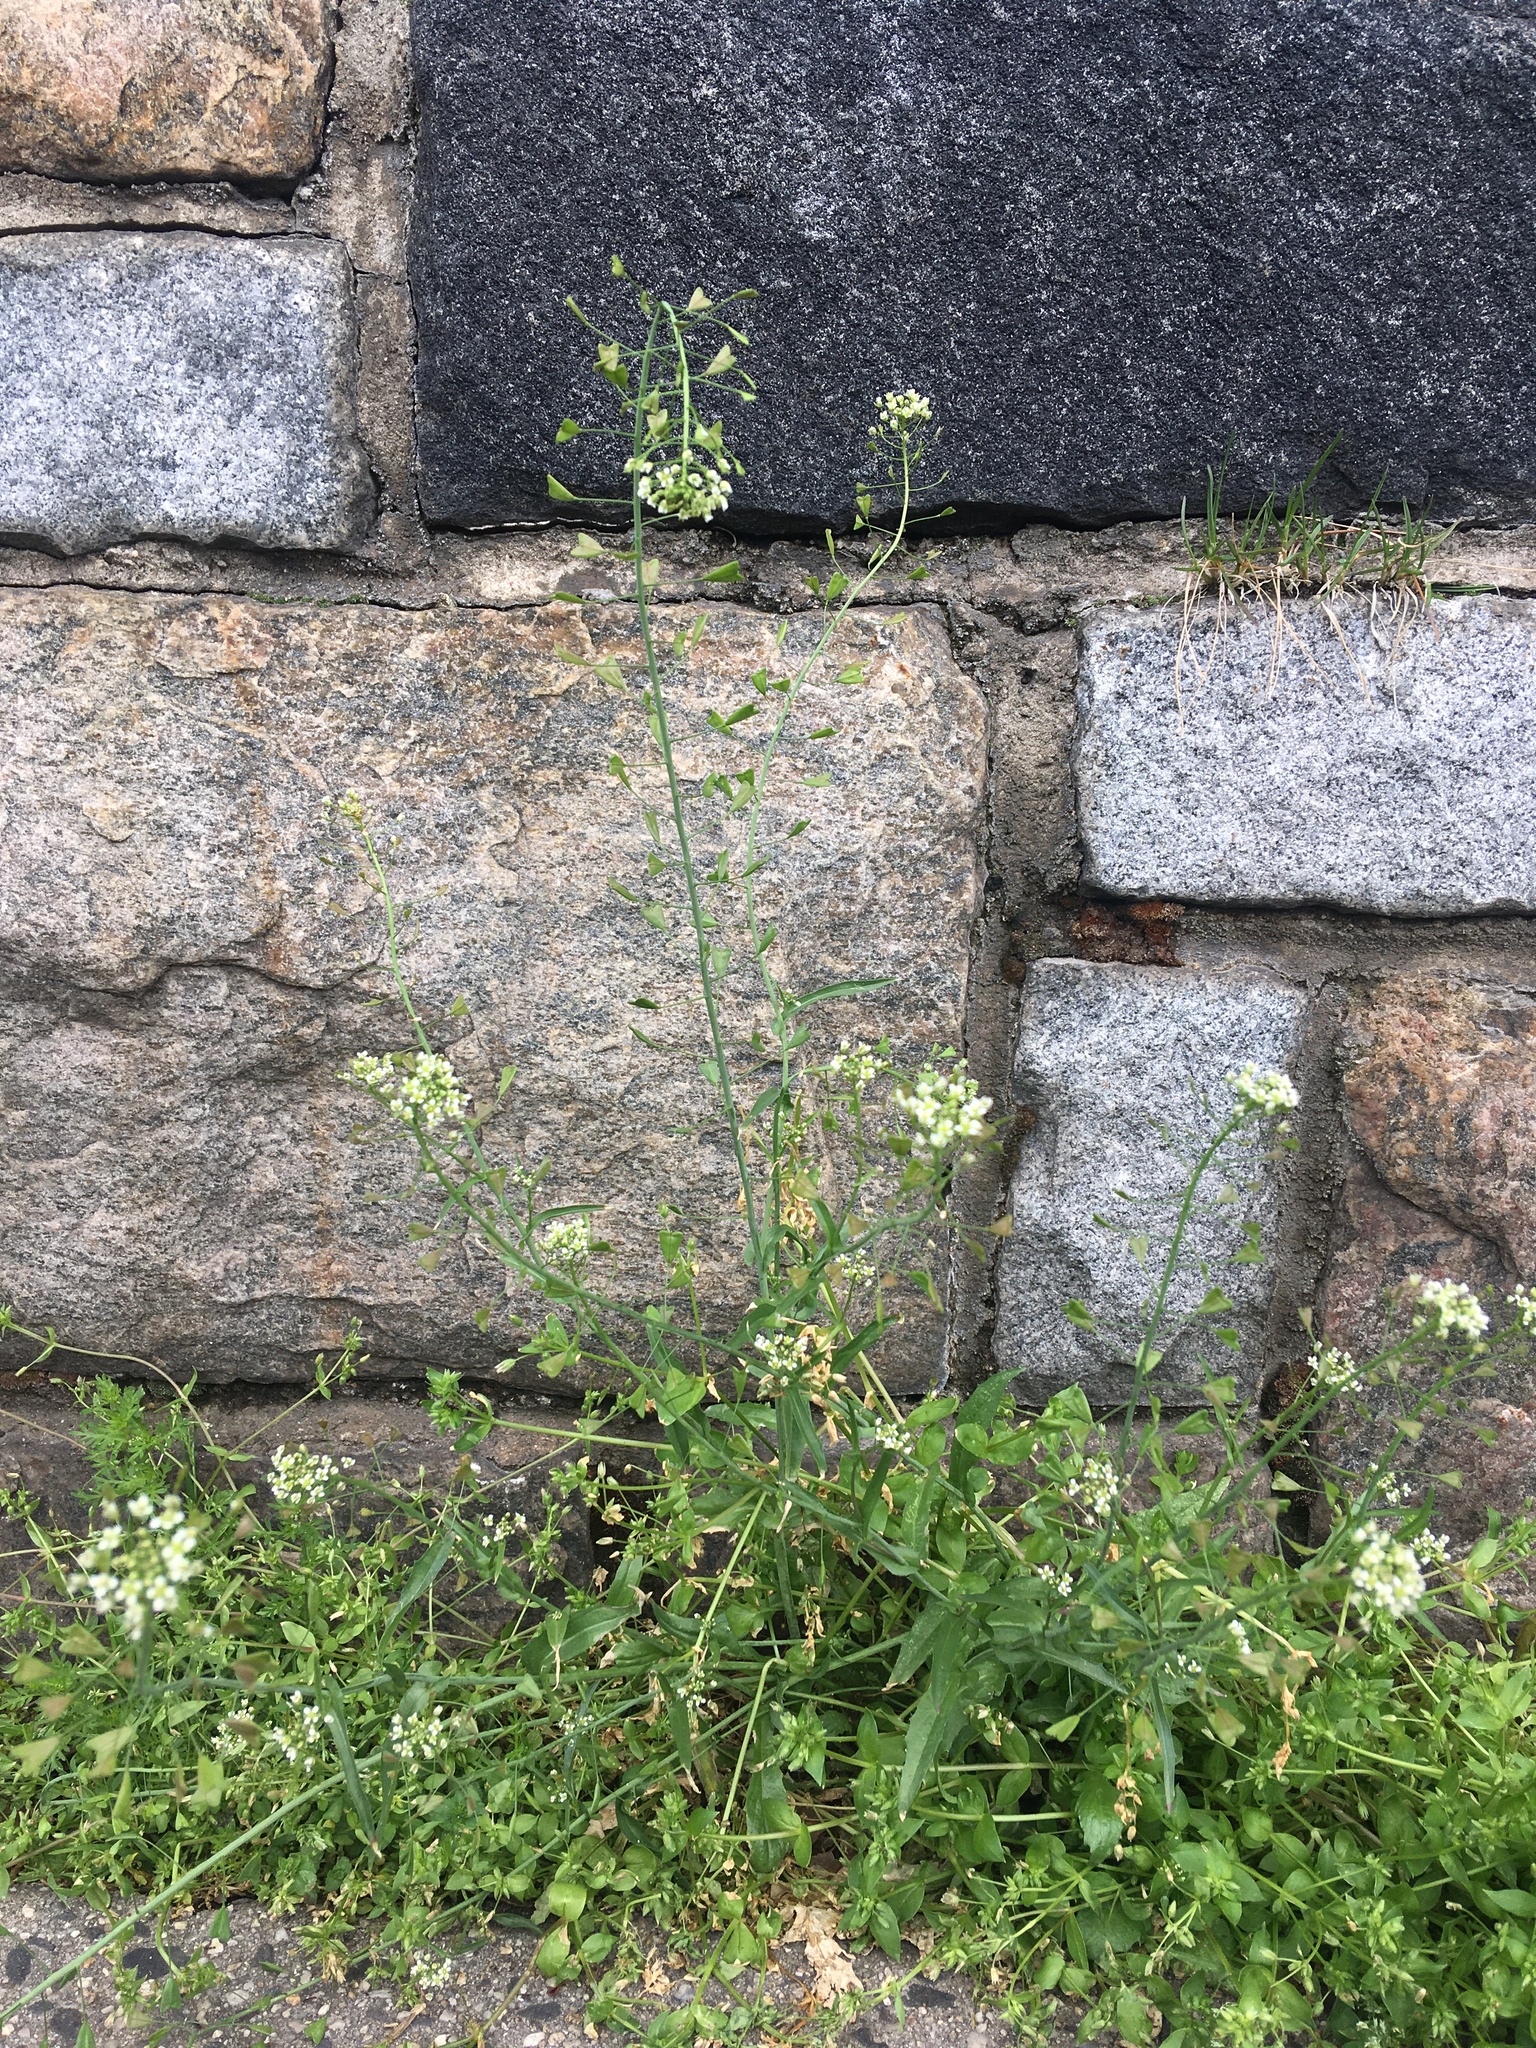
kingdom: Plantae
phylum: Tracheophyta
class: Magnoliopsida
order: Brassicales
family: Brassicaceae
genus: Capsella
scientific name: Capsella bursa-pastoris
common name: Shepherd's purse
